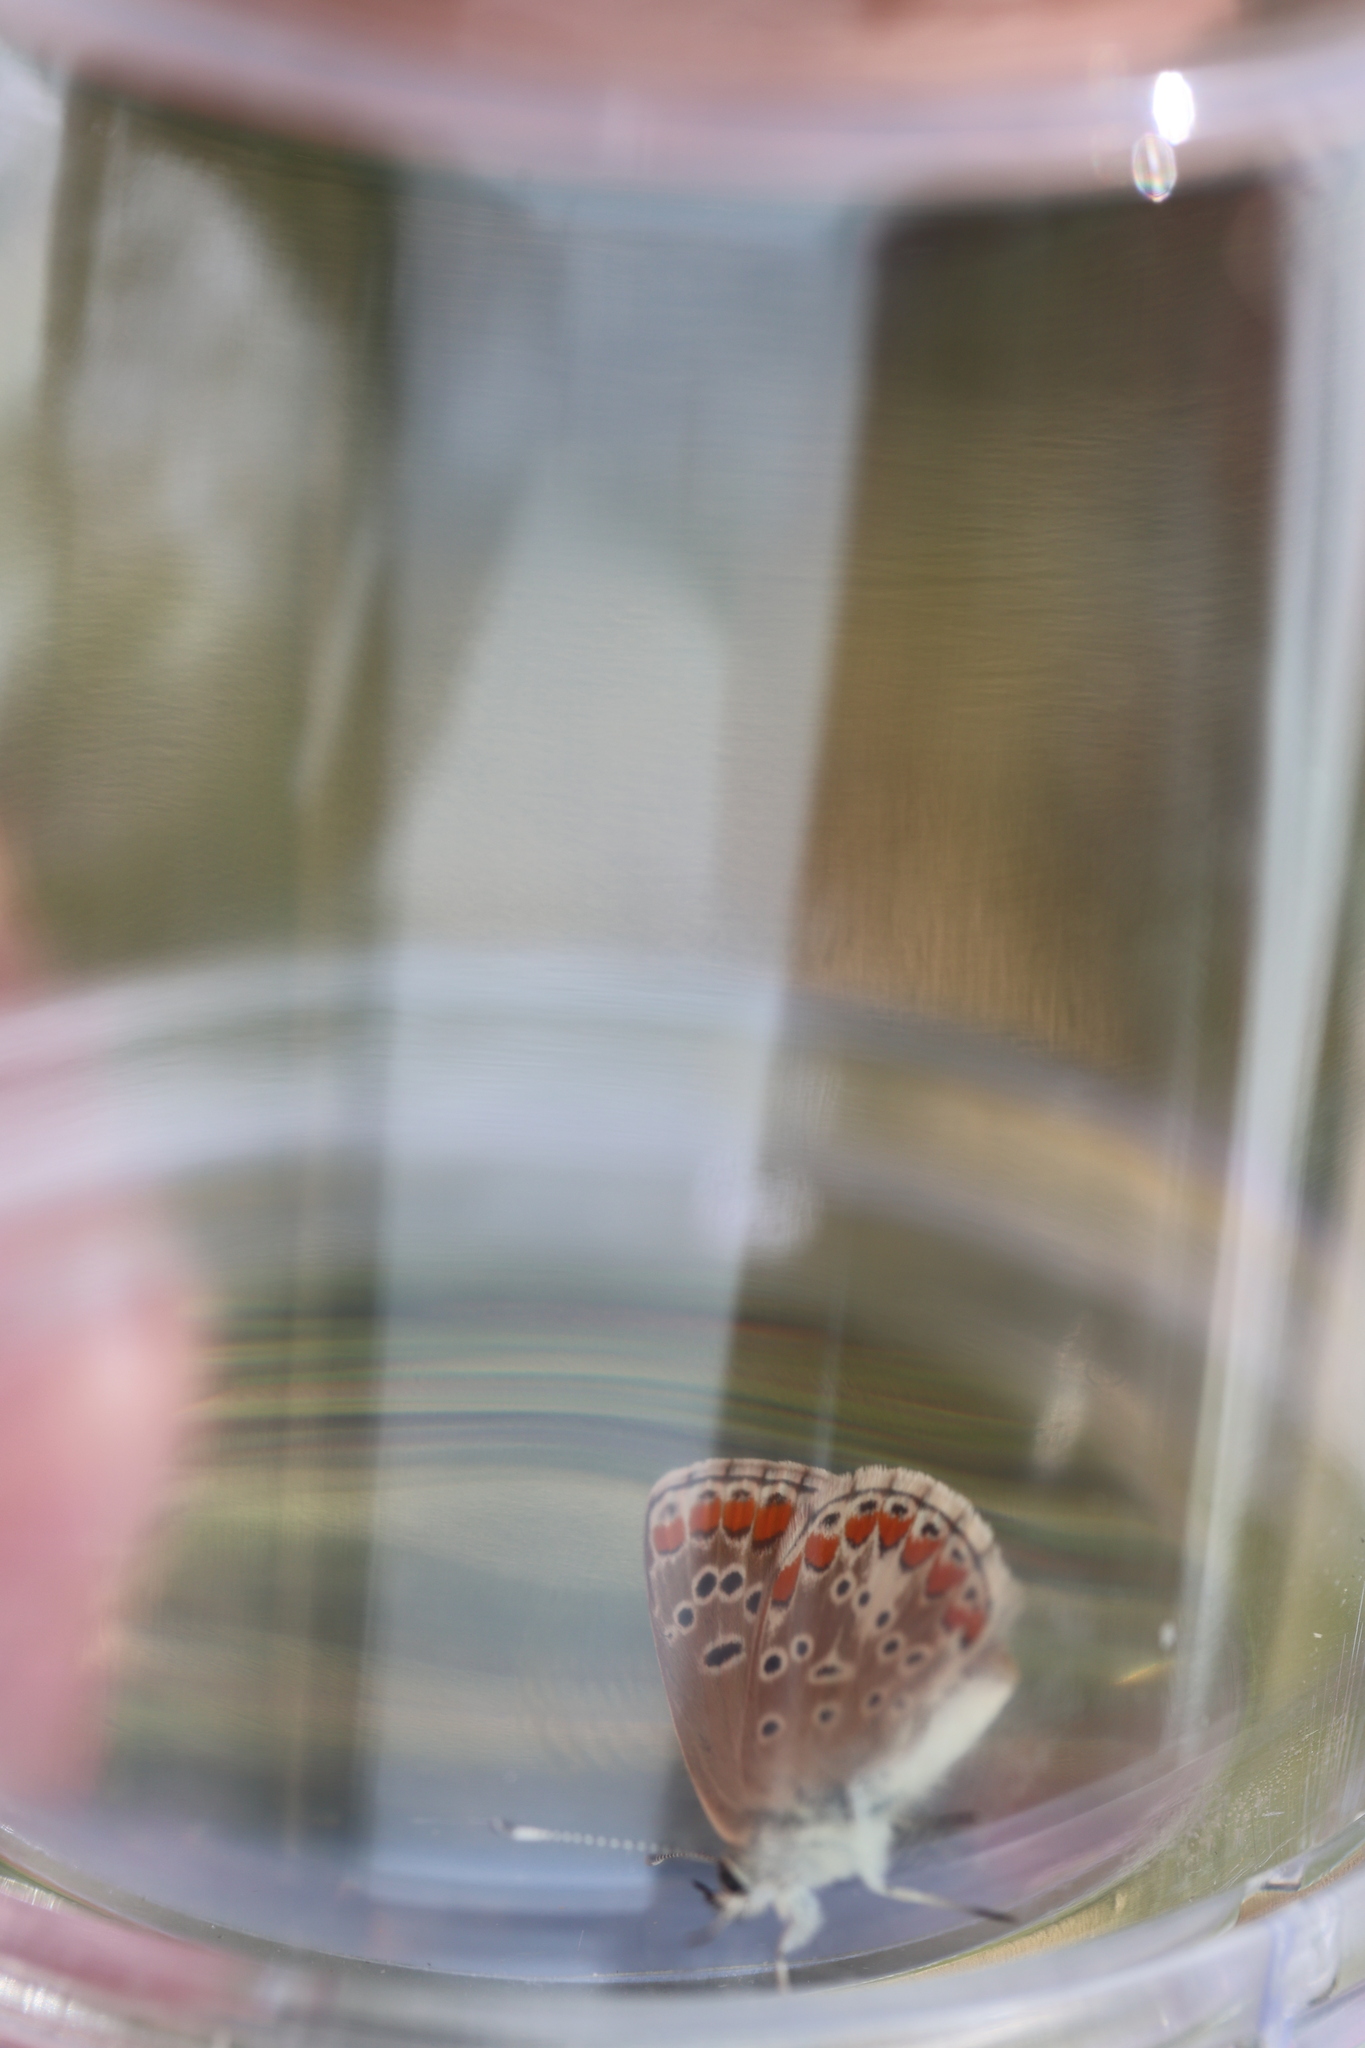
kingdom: Animalia
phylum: Arthropoda
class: Insecta
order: Lepidoptera
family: Lycaenidae
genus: Aricia
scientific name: Aricia agestis
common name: Brown argus
